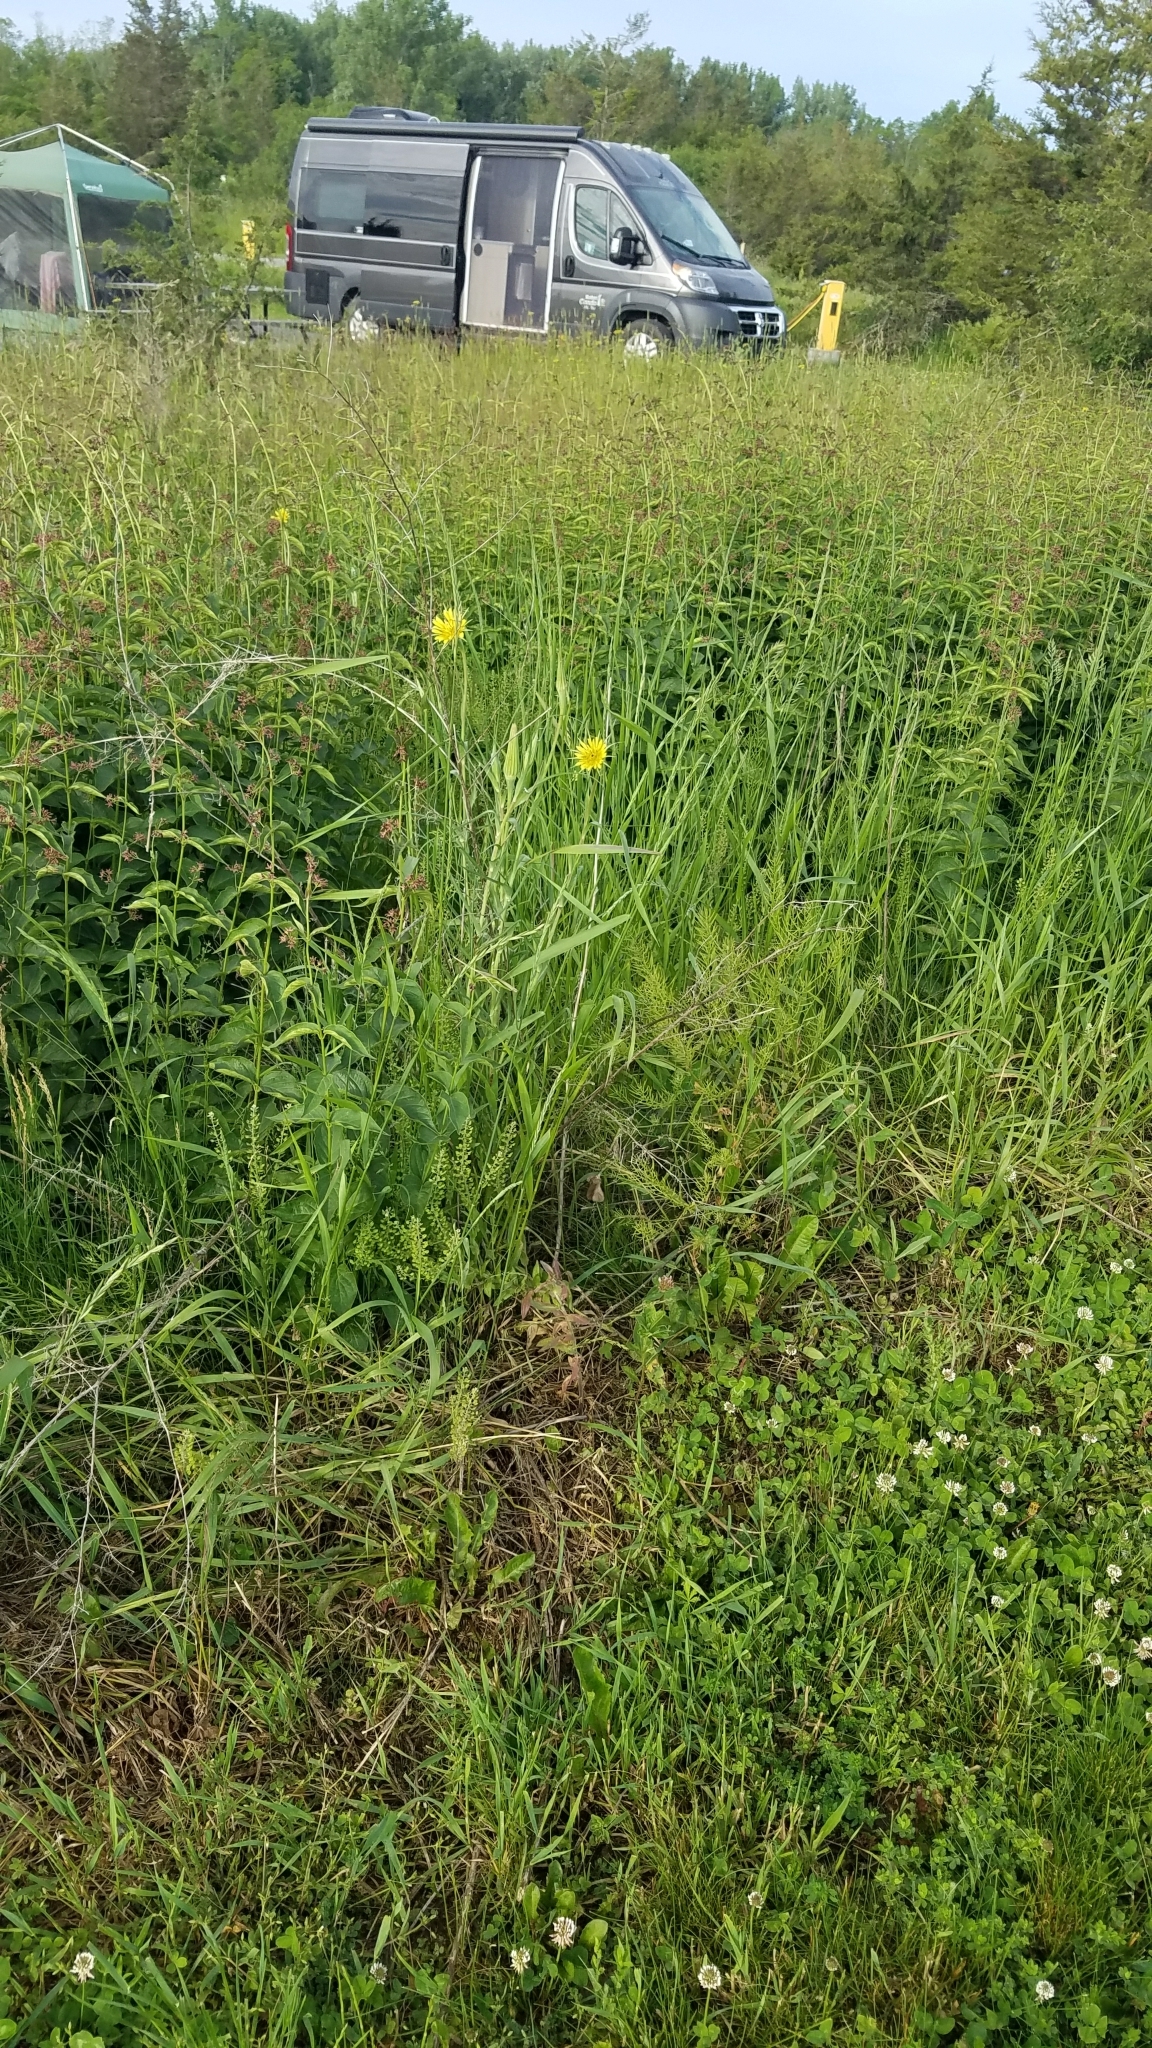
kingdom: Plantae
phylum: Tracheophyta
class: Magnoliopsida
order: Gentianales
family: Apocynaceae
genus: Vincetoxicum
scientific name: Vincetoxicum rossicum
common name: Dog-strangling vine
